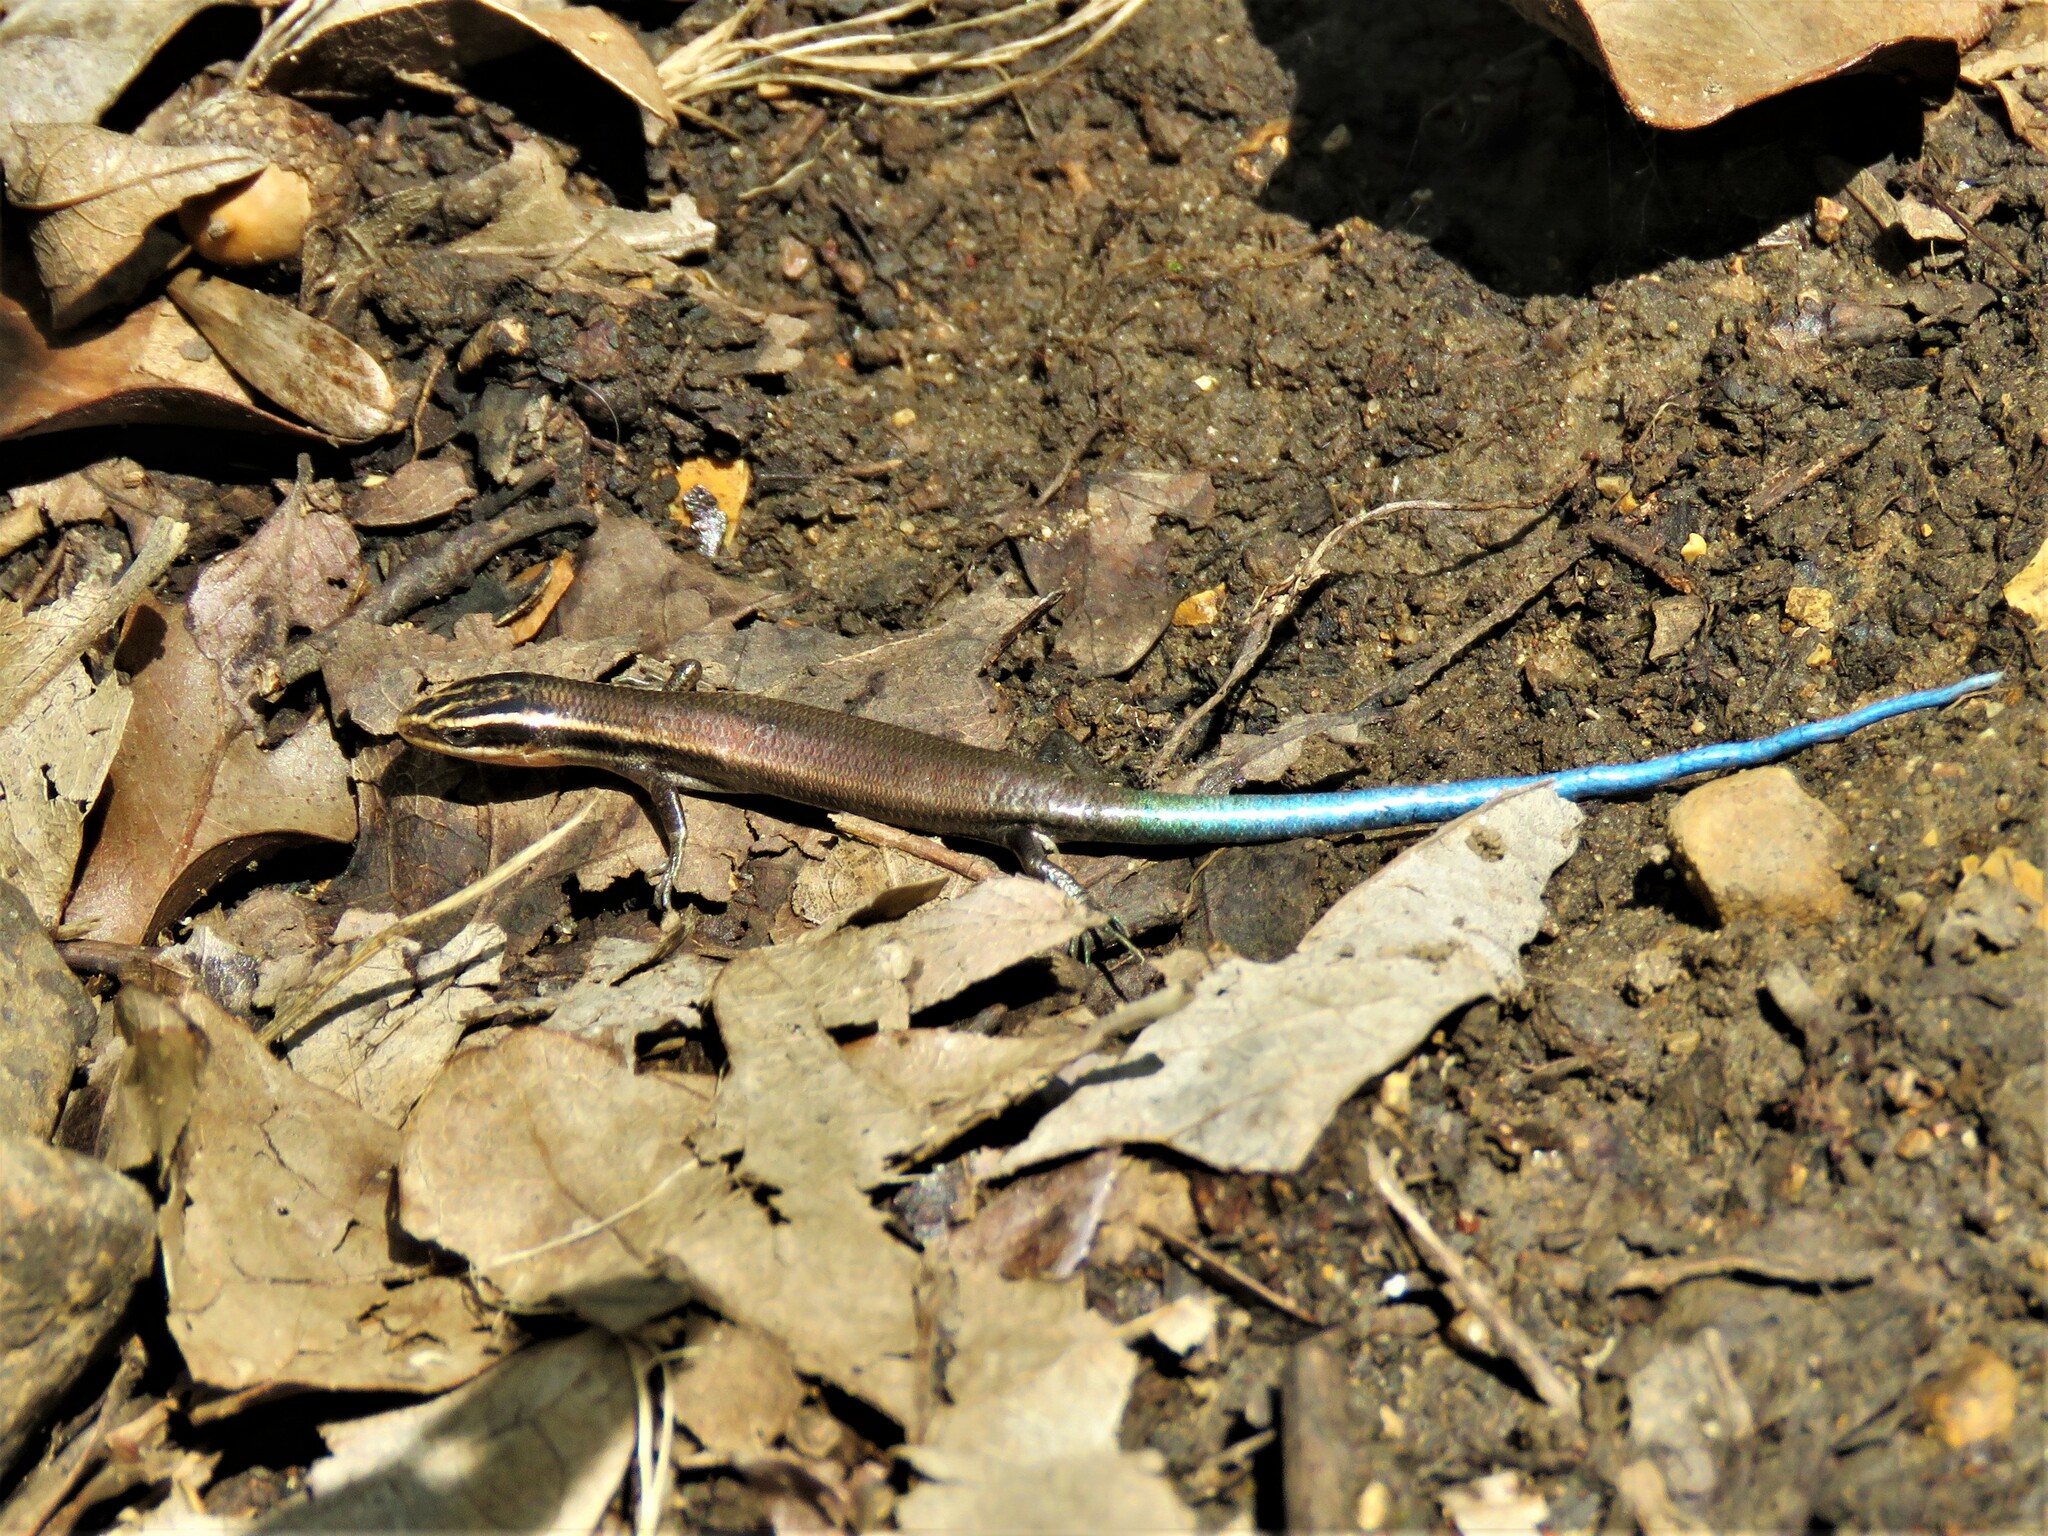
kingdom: Animalia
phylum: Chordata
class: Squamata
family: Scincidae
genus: Plestiodon
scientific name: Plestiodon tetragrammus
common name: Four-lined skink
